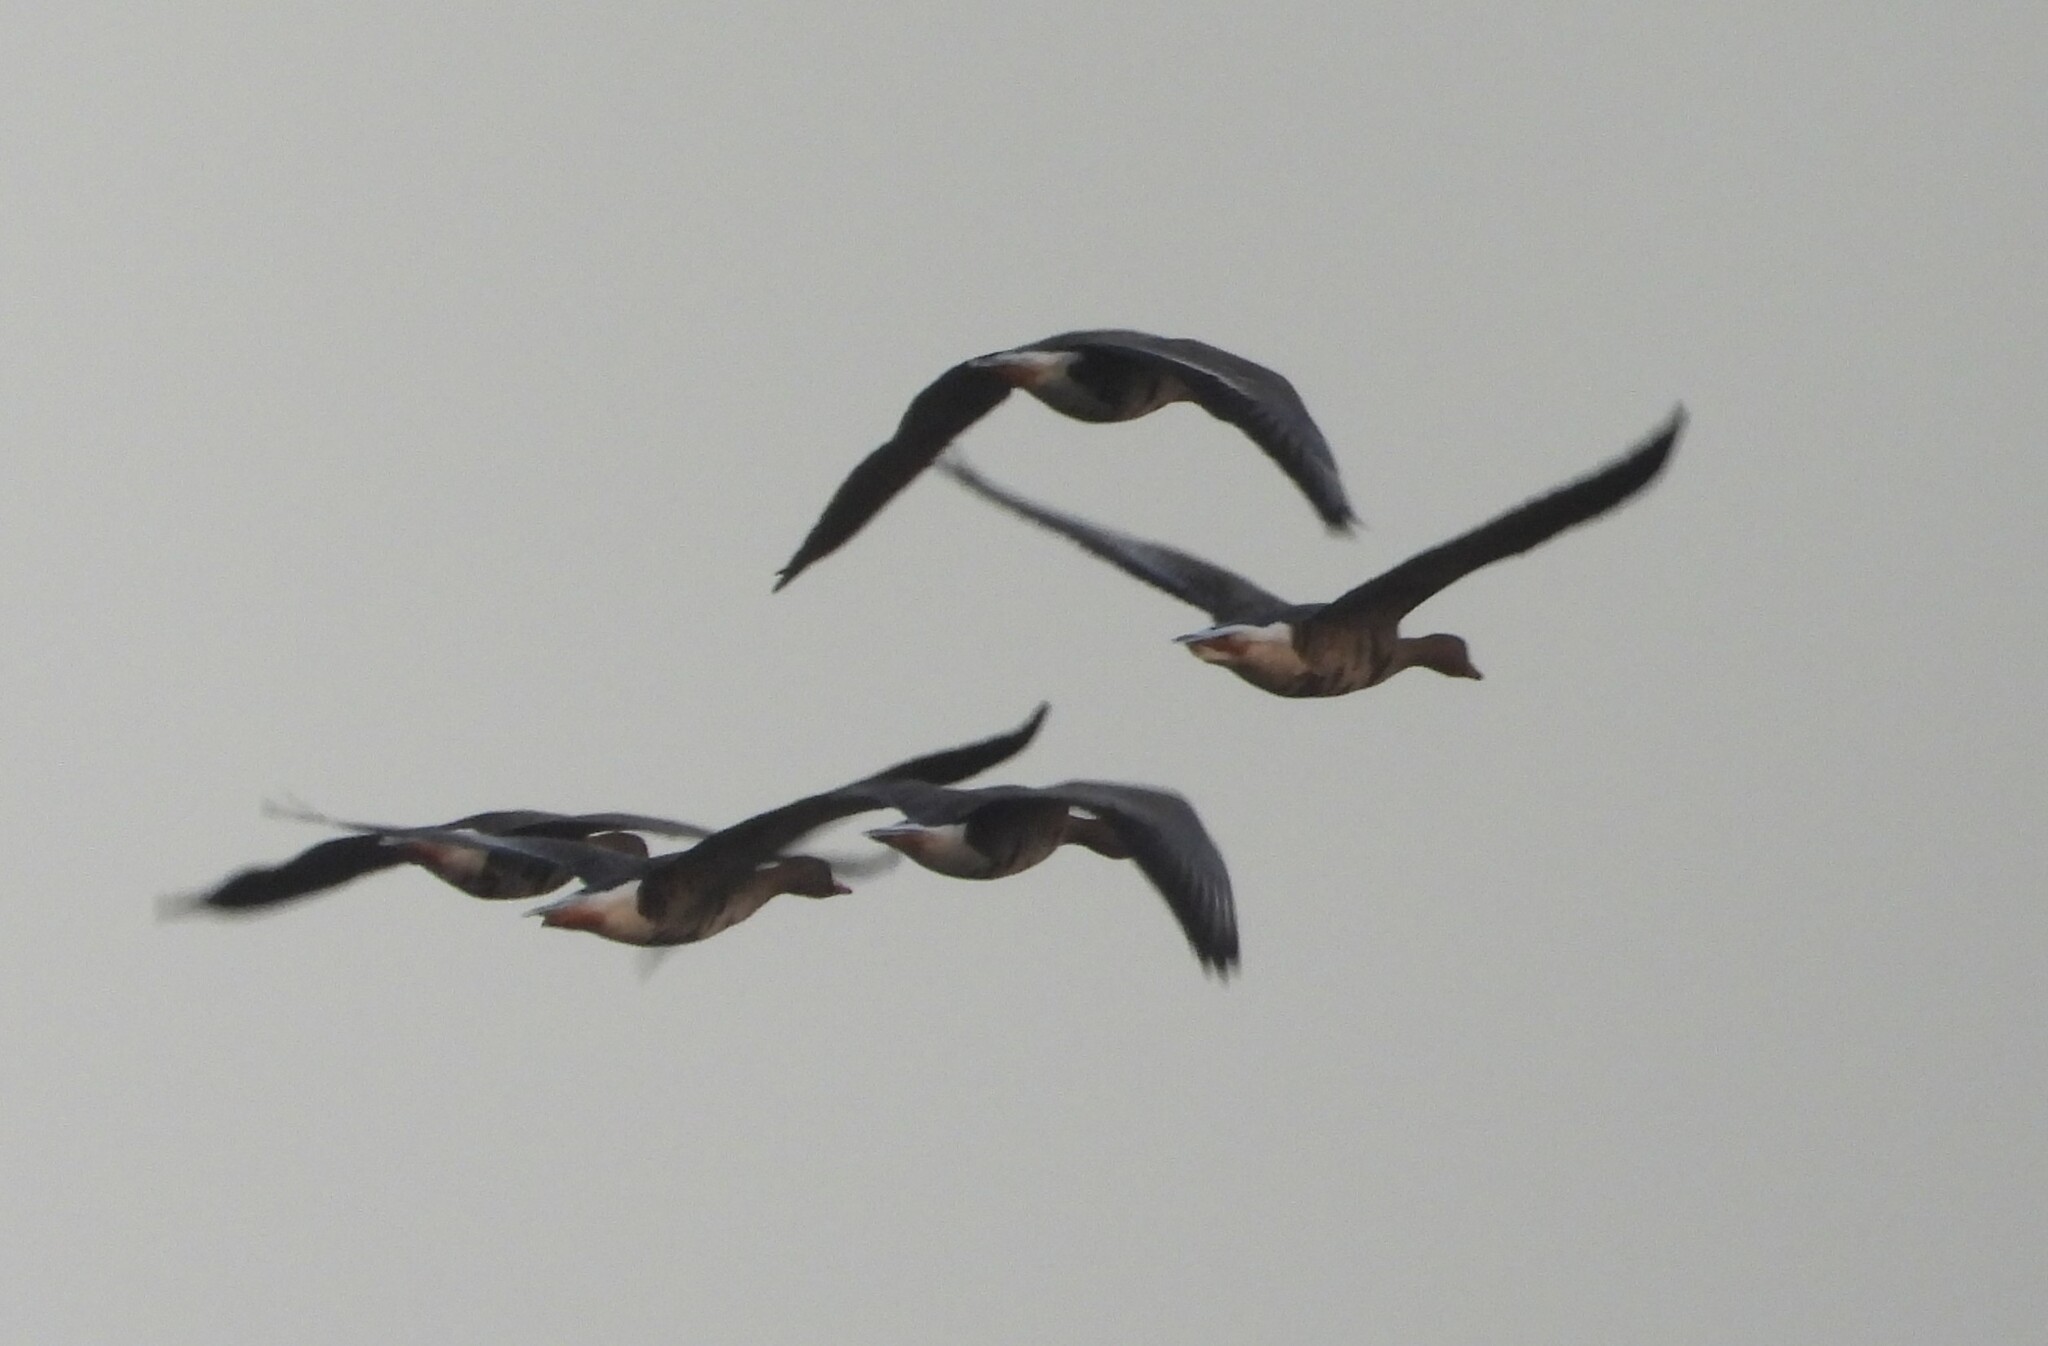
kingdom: Animalia
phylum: Chordata
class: Aves
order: Anseriformes
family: Anatidae
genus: Anser
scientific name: Anser albifrons
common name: Greater white-fronted goose
